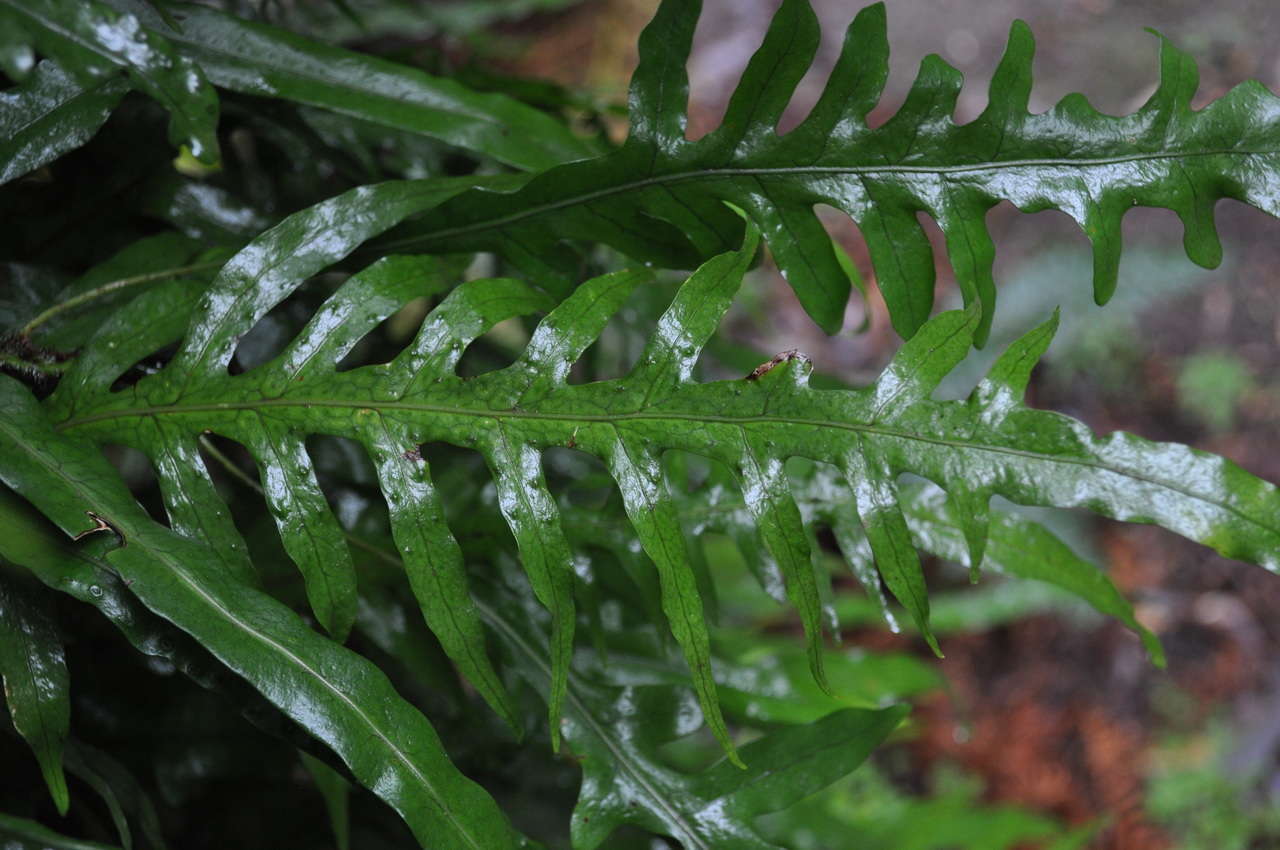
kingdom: Plantae
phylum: Tracheophyta
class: Polypodiopsida
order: Polypodiales
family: Polypodiaceae
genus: Lecanopteris
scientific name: Lecanopteris pustulata
